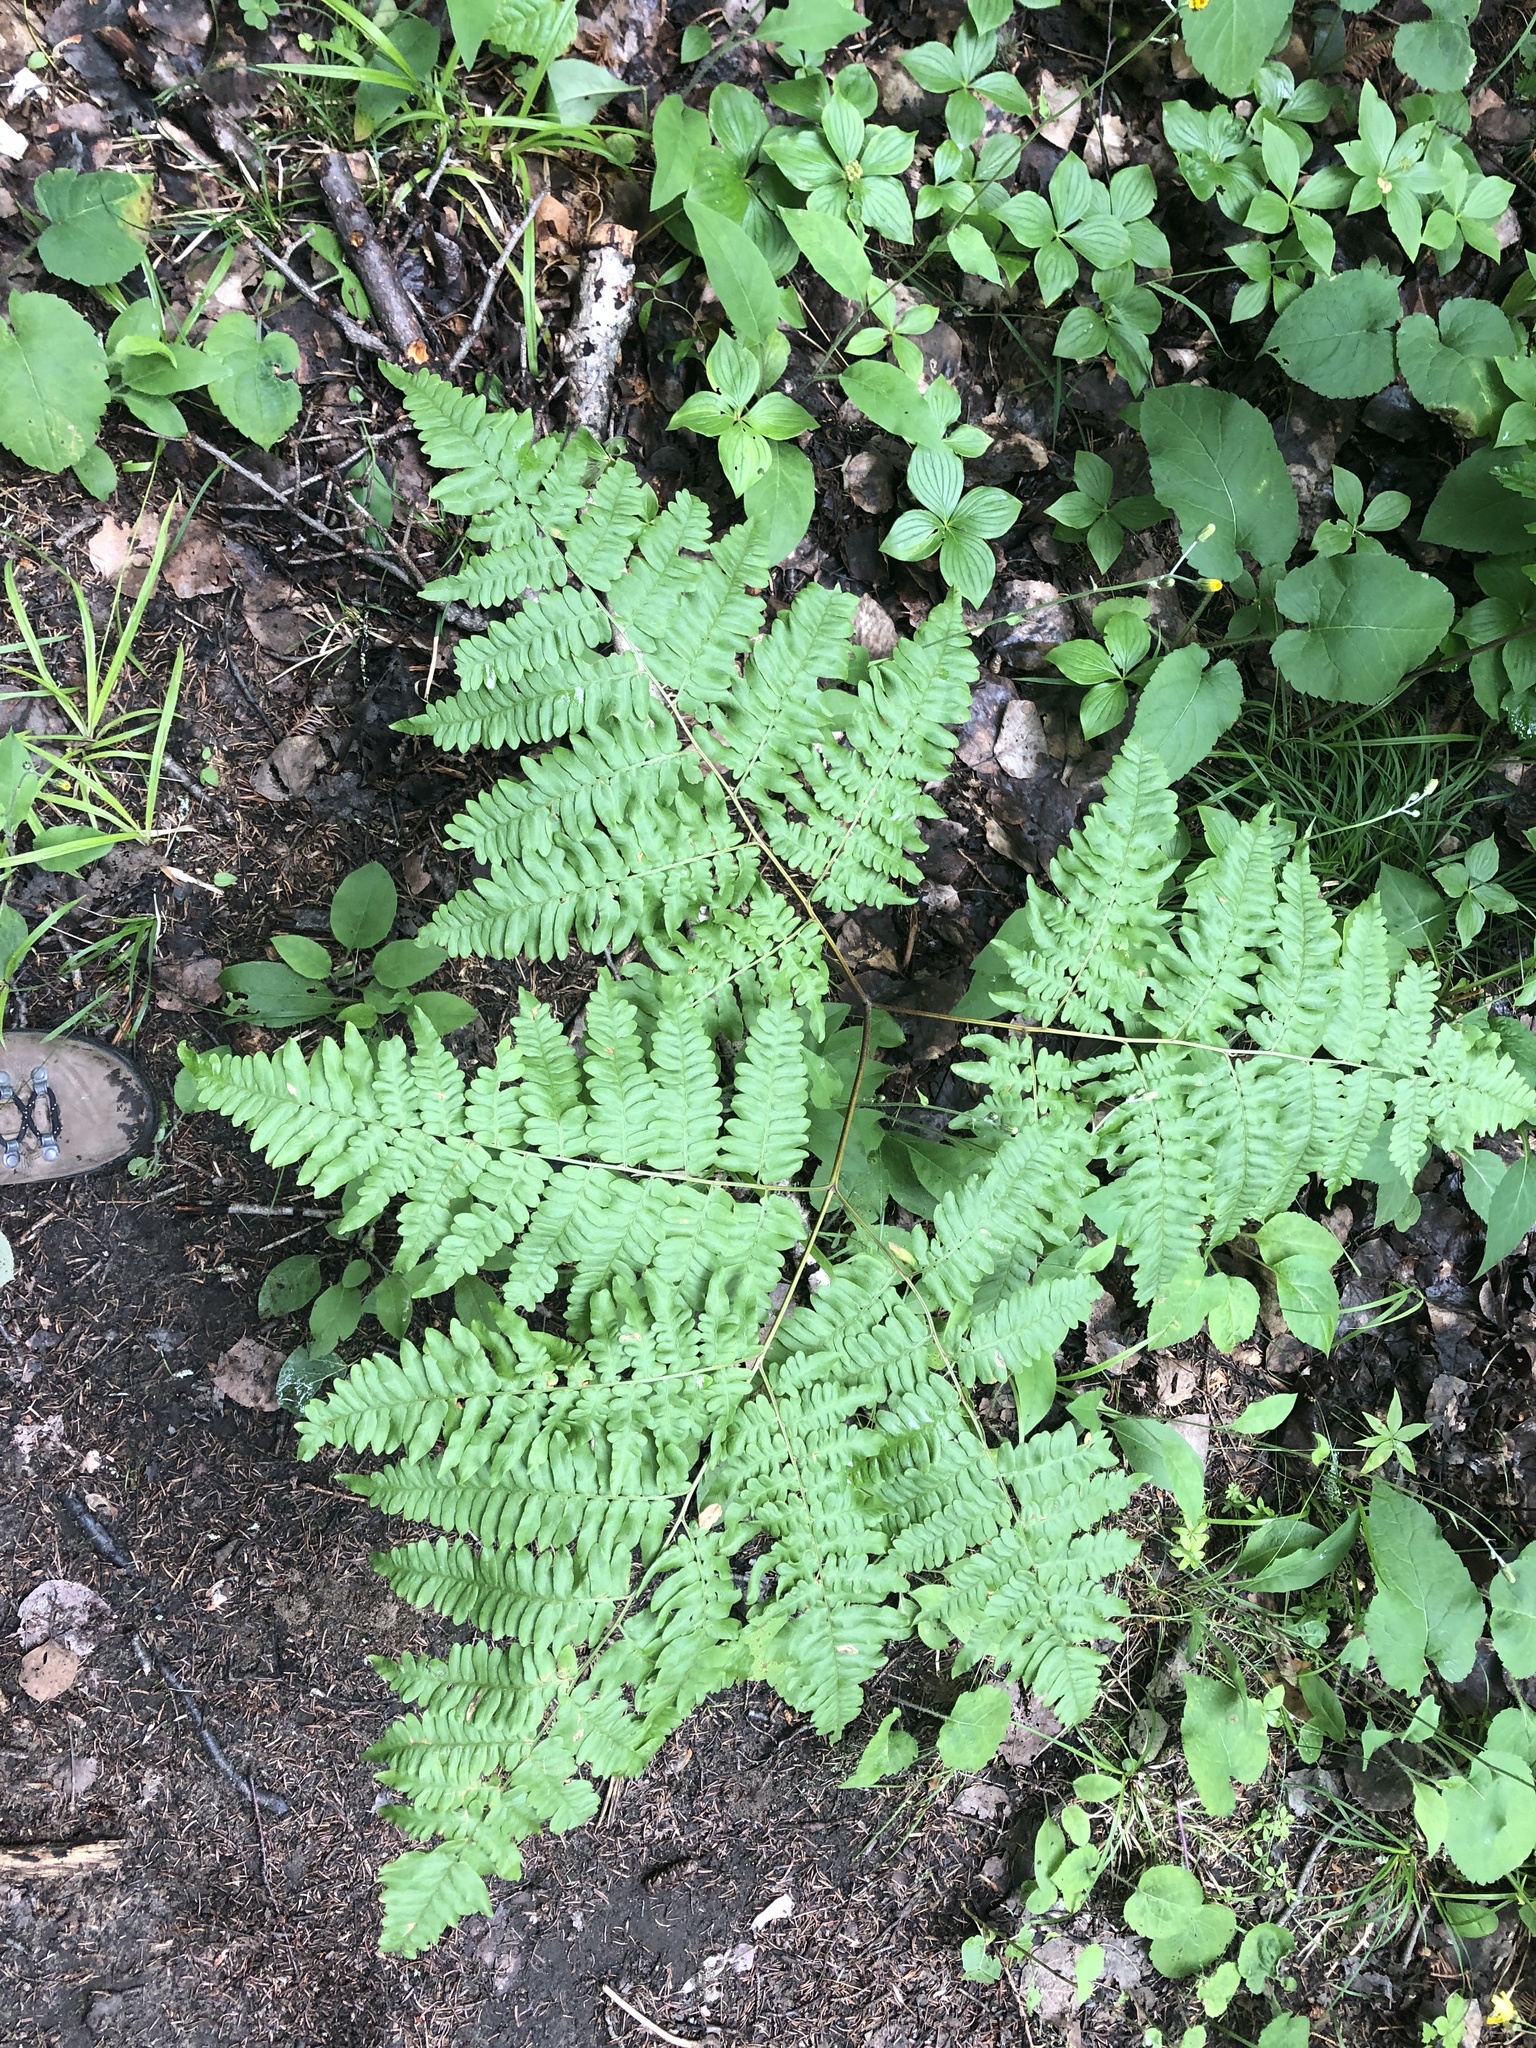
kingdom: Plantae
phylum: Tracheophyta
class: Polypodiopsida
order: Polypodiales
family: Dennstaedtiaceae
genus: Pteridium
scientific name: Pteridium aquilinum
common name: Bracken
